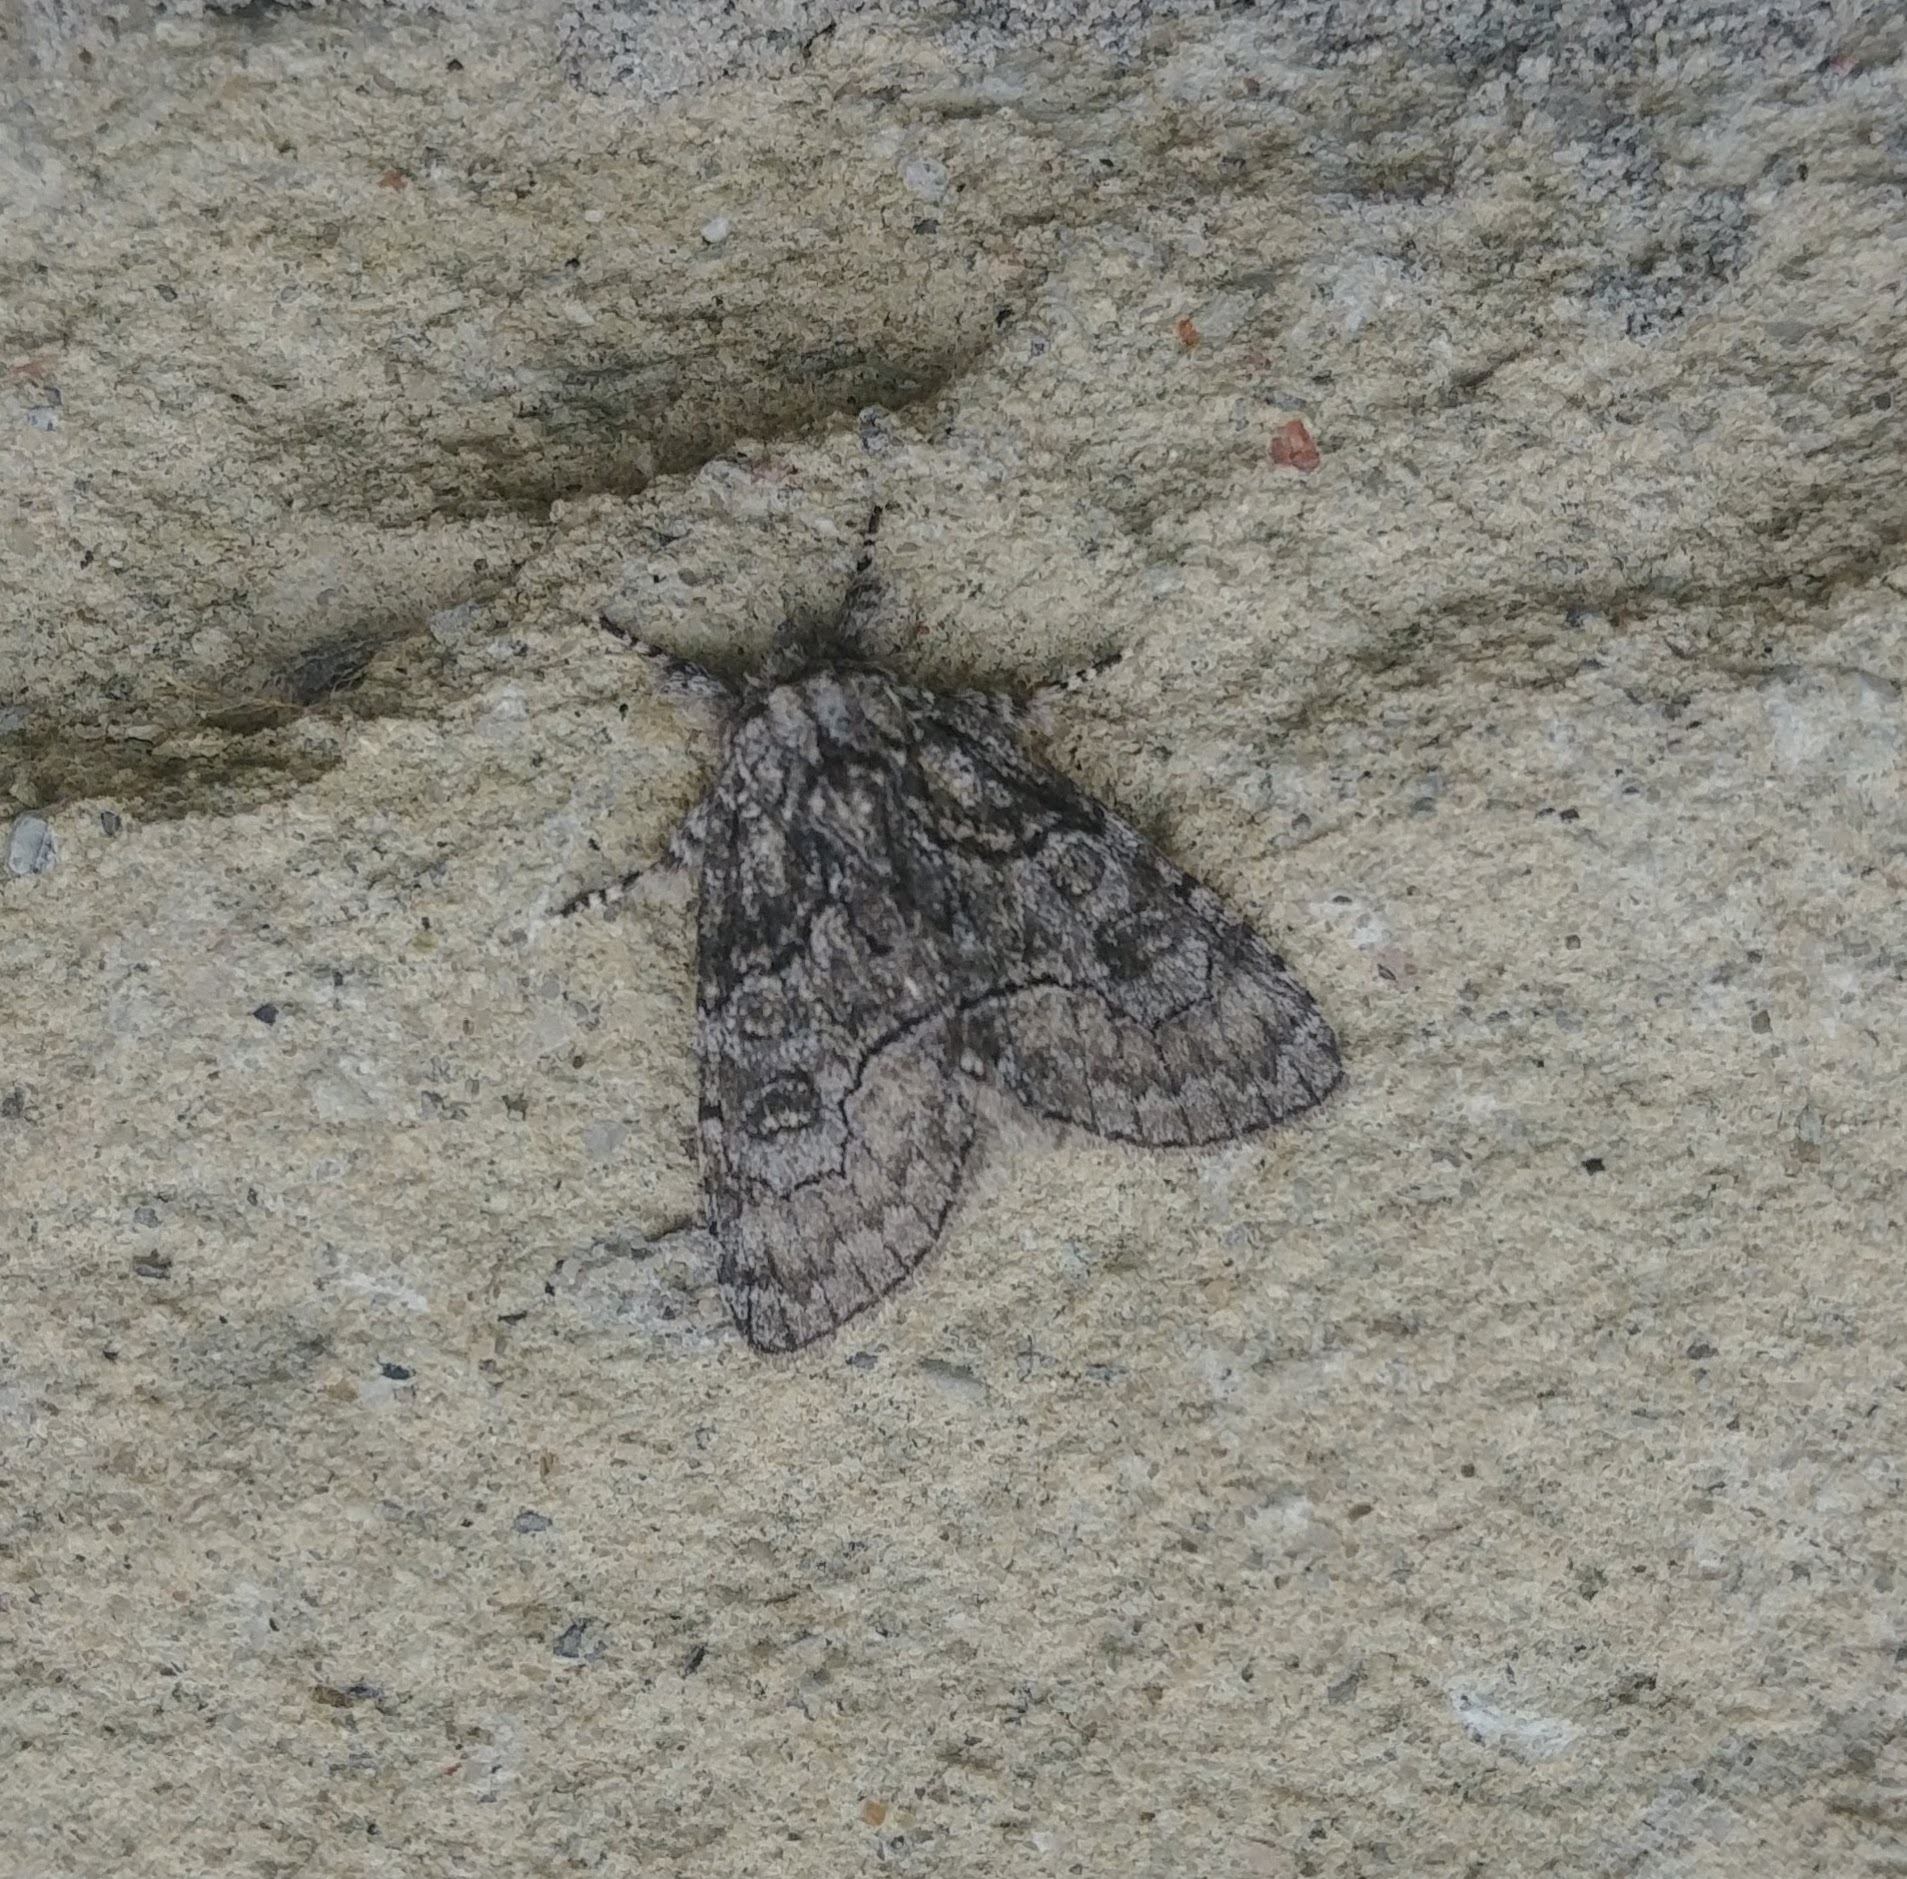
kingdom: Animalia
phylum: Arthropoda
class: Insecta
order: Lepidoptera
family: Noctuidae
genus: Raphia
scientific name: Raphia frater
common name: Brother
